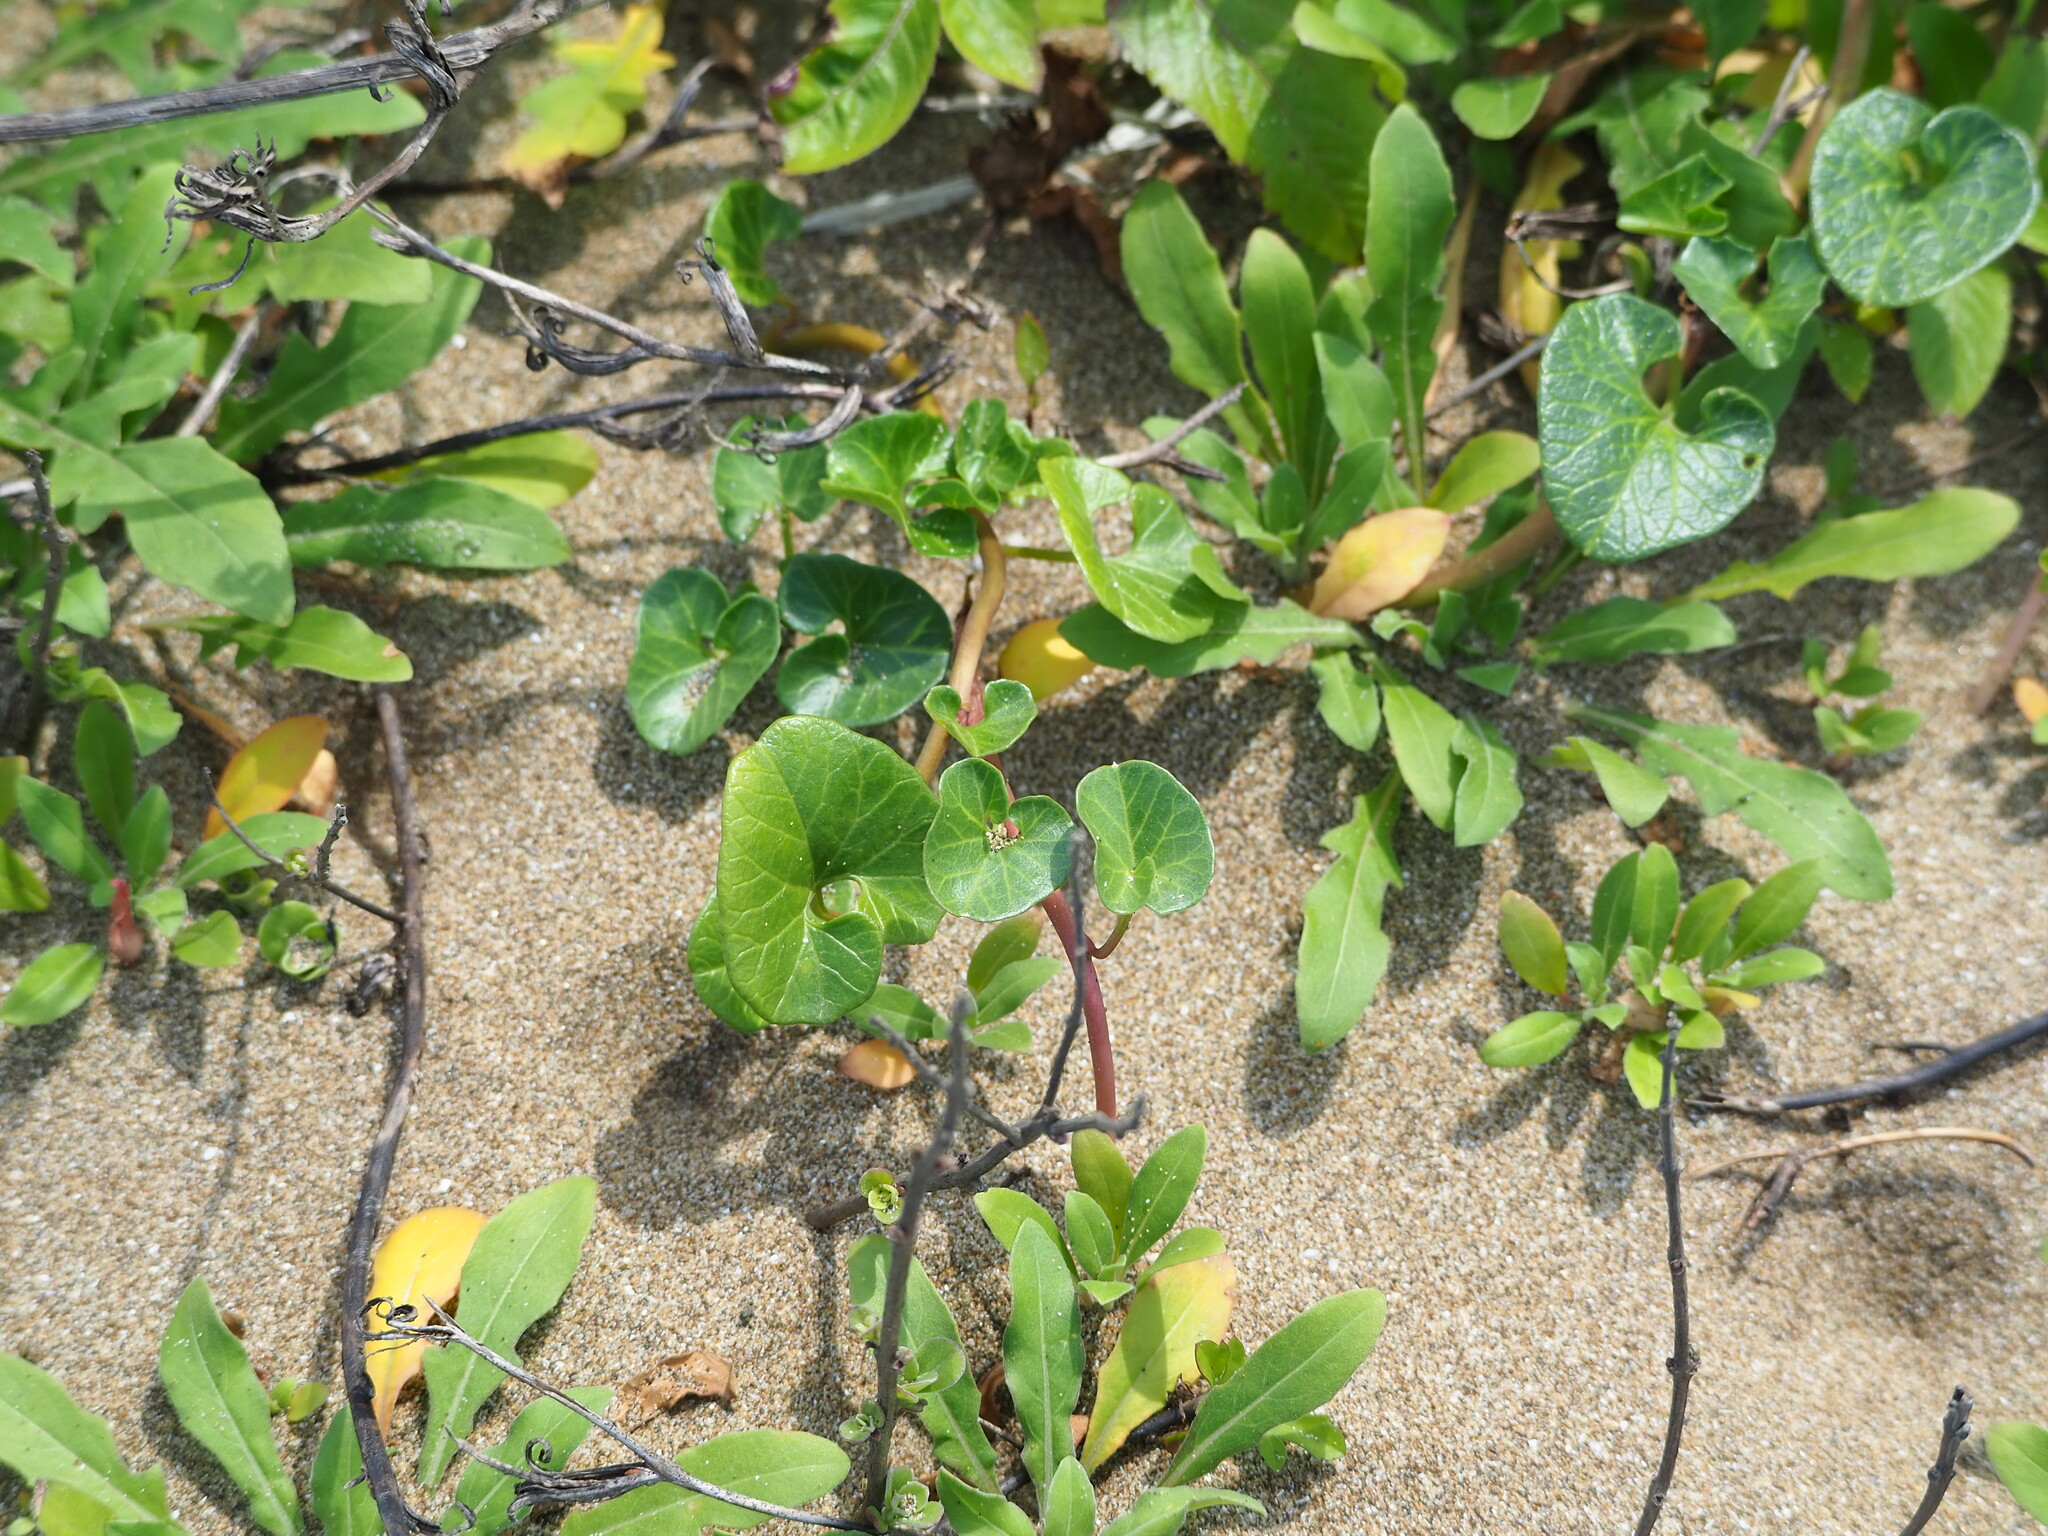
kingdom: Plantae
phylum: Tracheophyta
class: Magnoliopsida
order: Solanales
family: Convolvulaceae
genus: Calystegia
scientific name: Calystegia soldanella
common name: Sea bindweed
